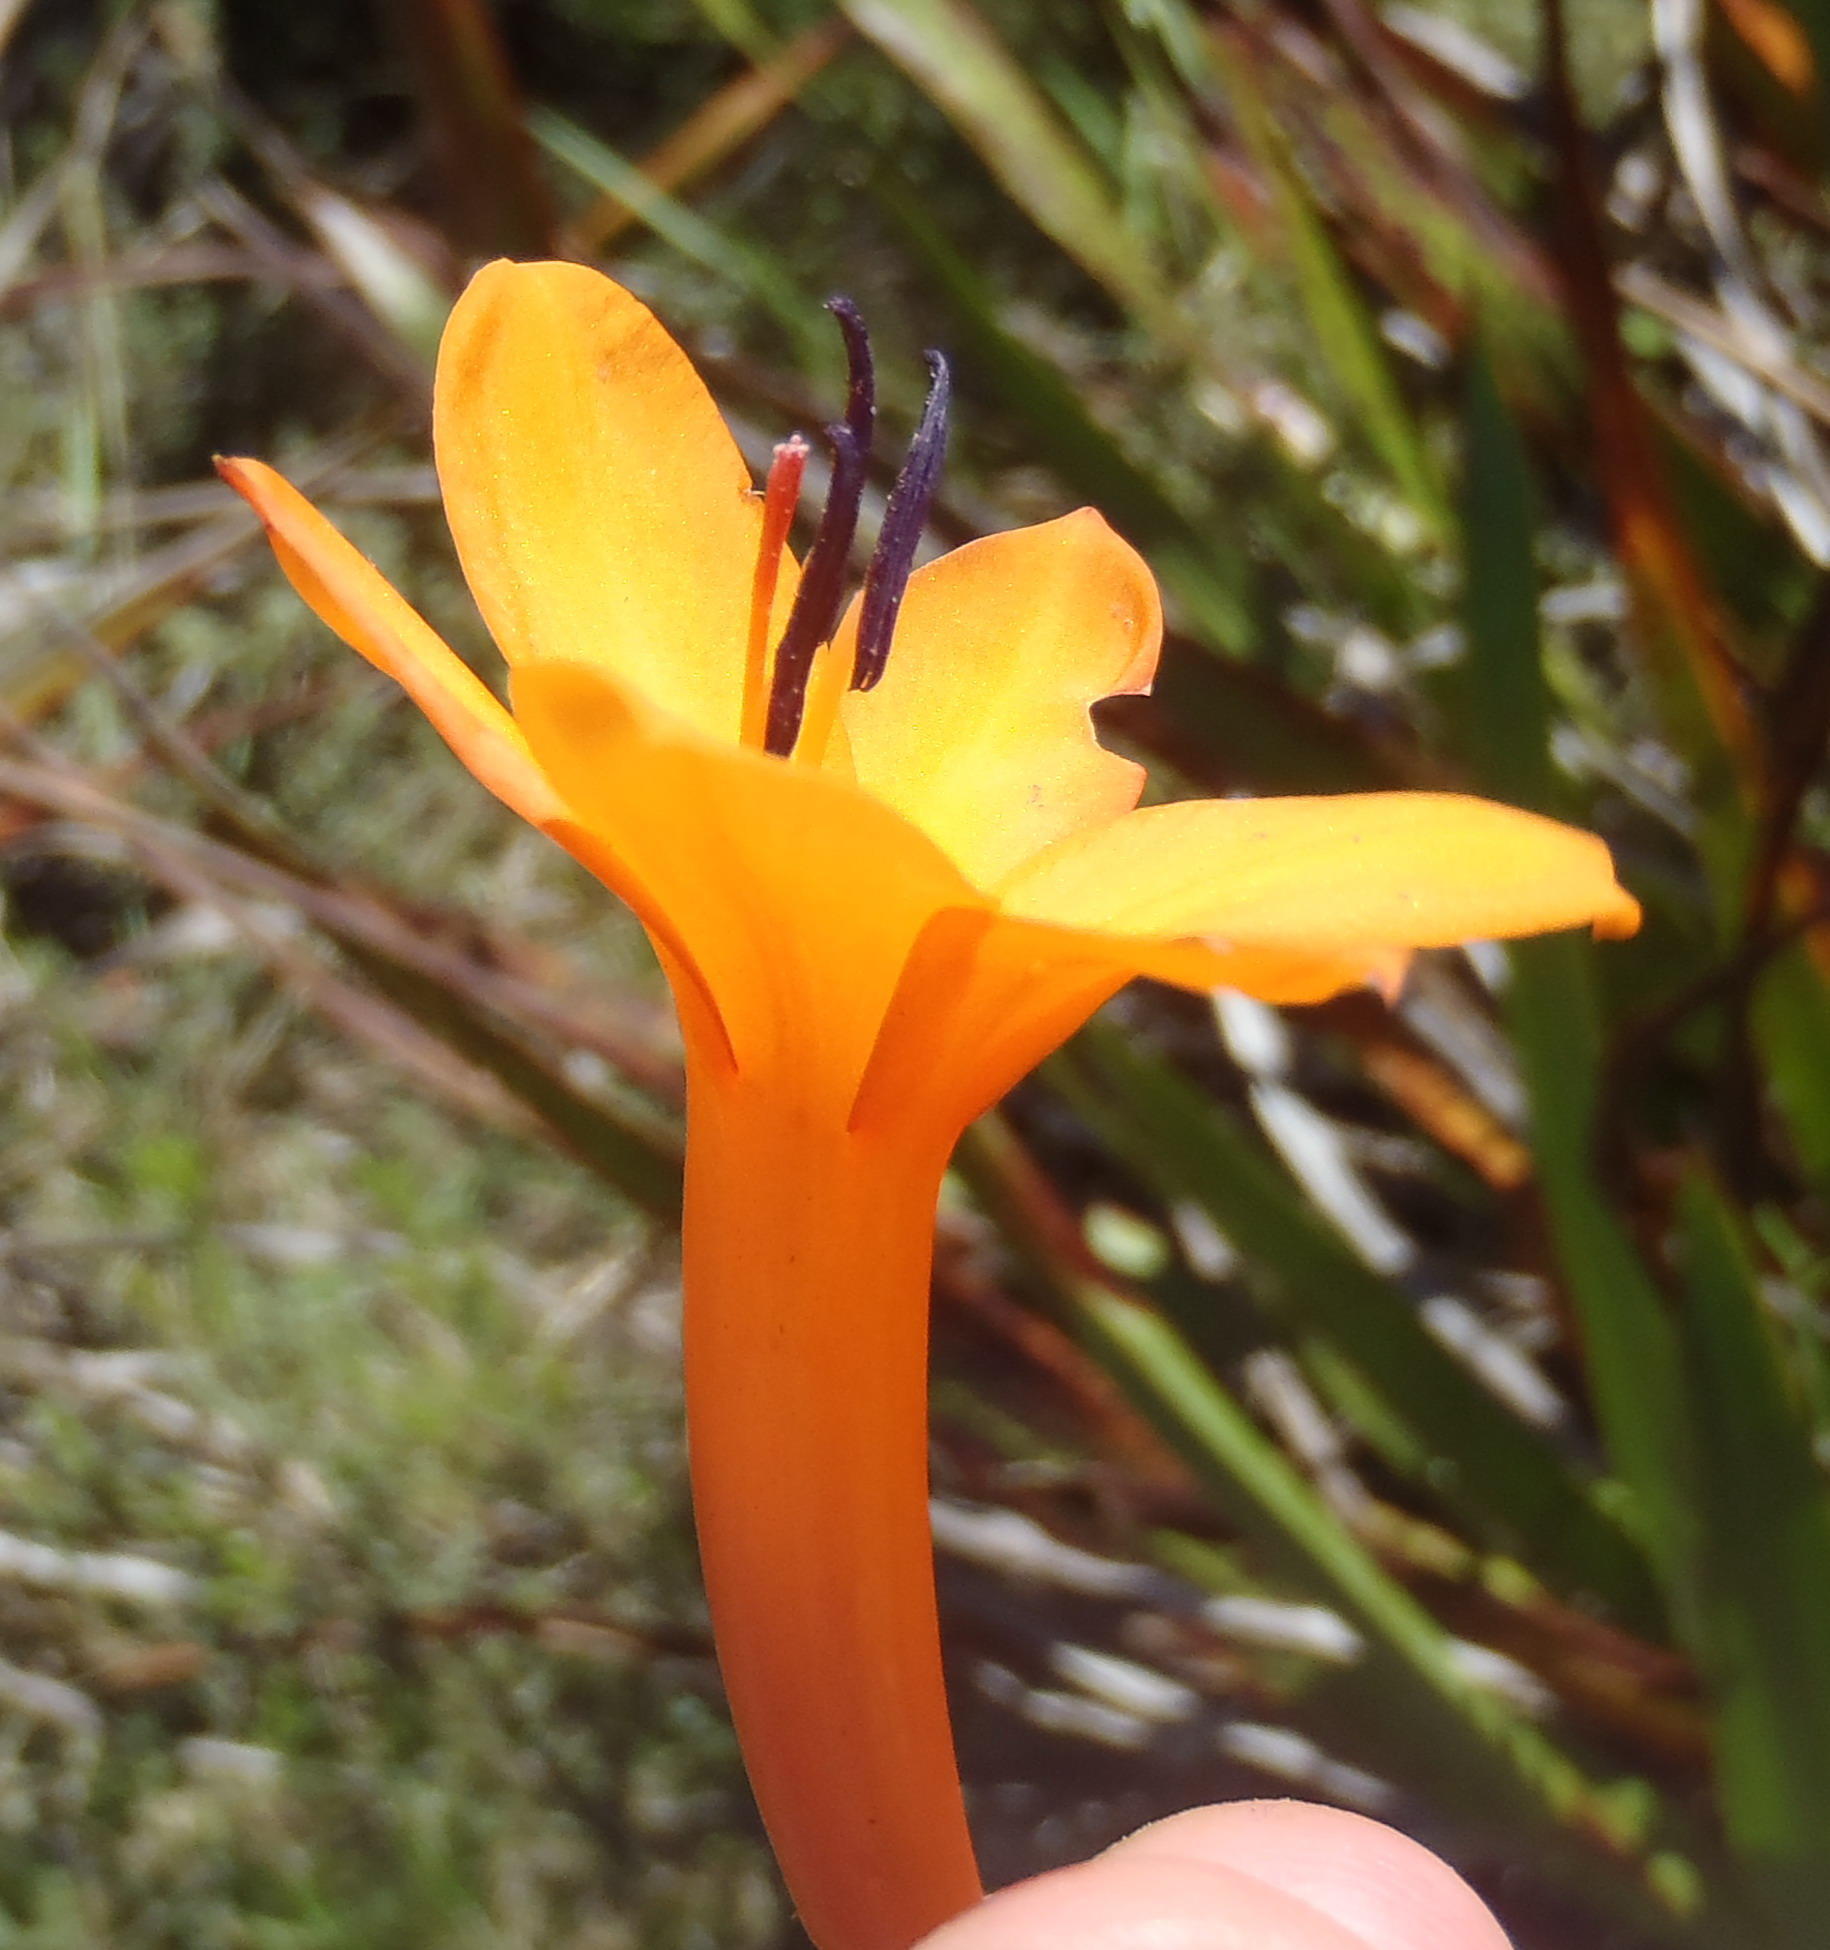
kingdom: Plantae
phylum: Tracheophyta
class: Liliopsida
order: Asparagales
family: Iridaceae
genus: Watsonia
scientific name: Watsonia pillansii
